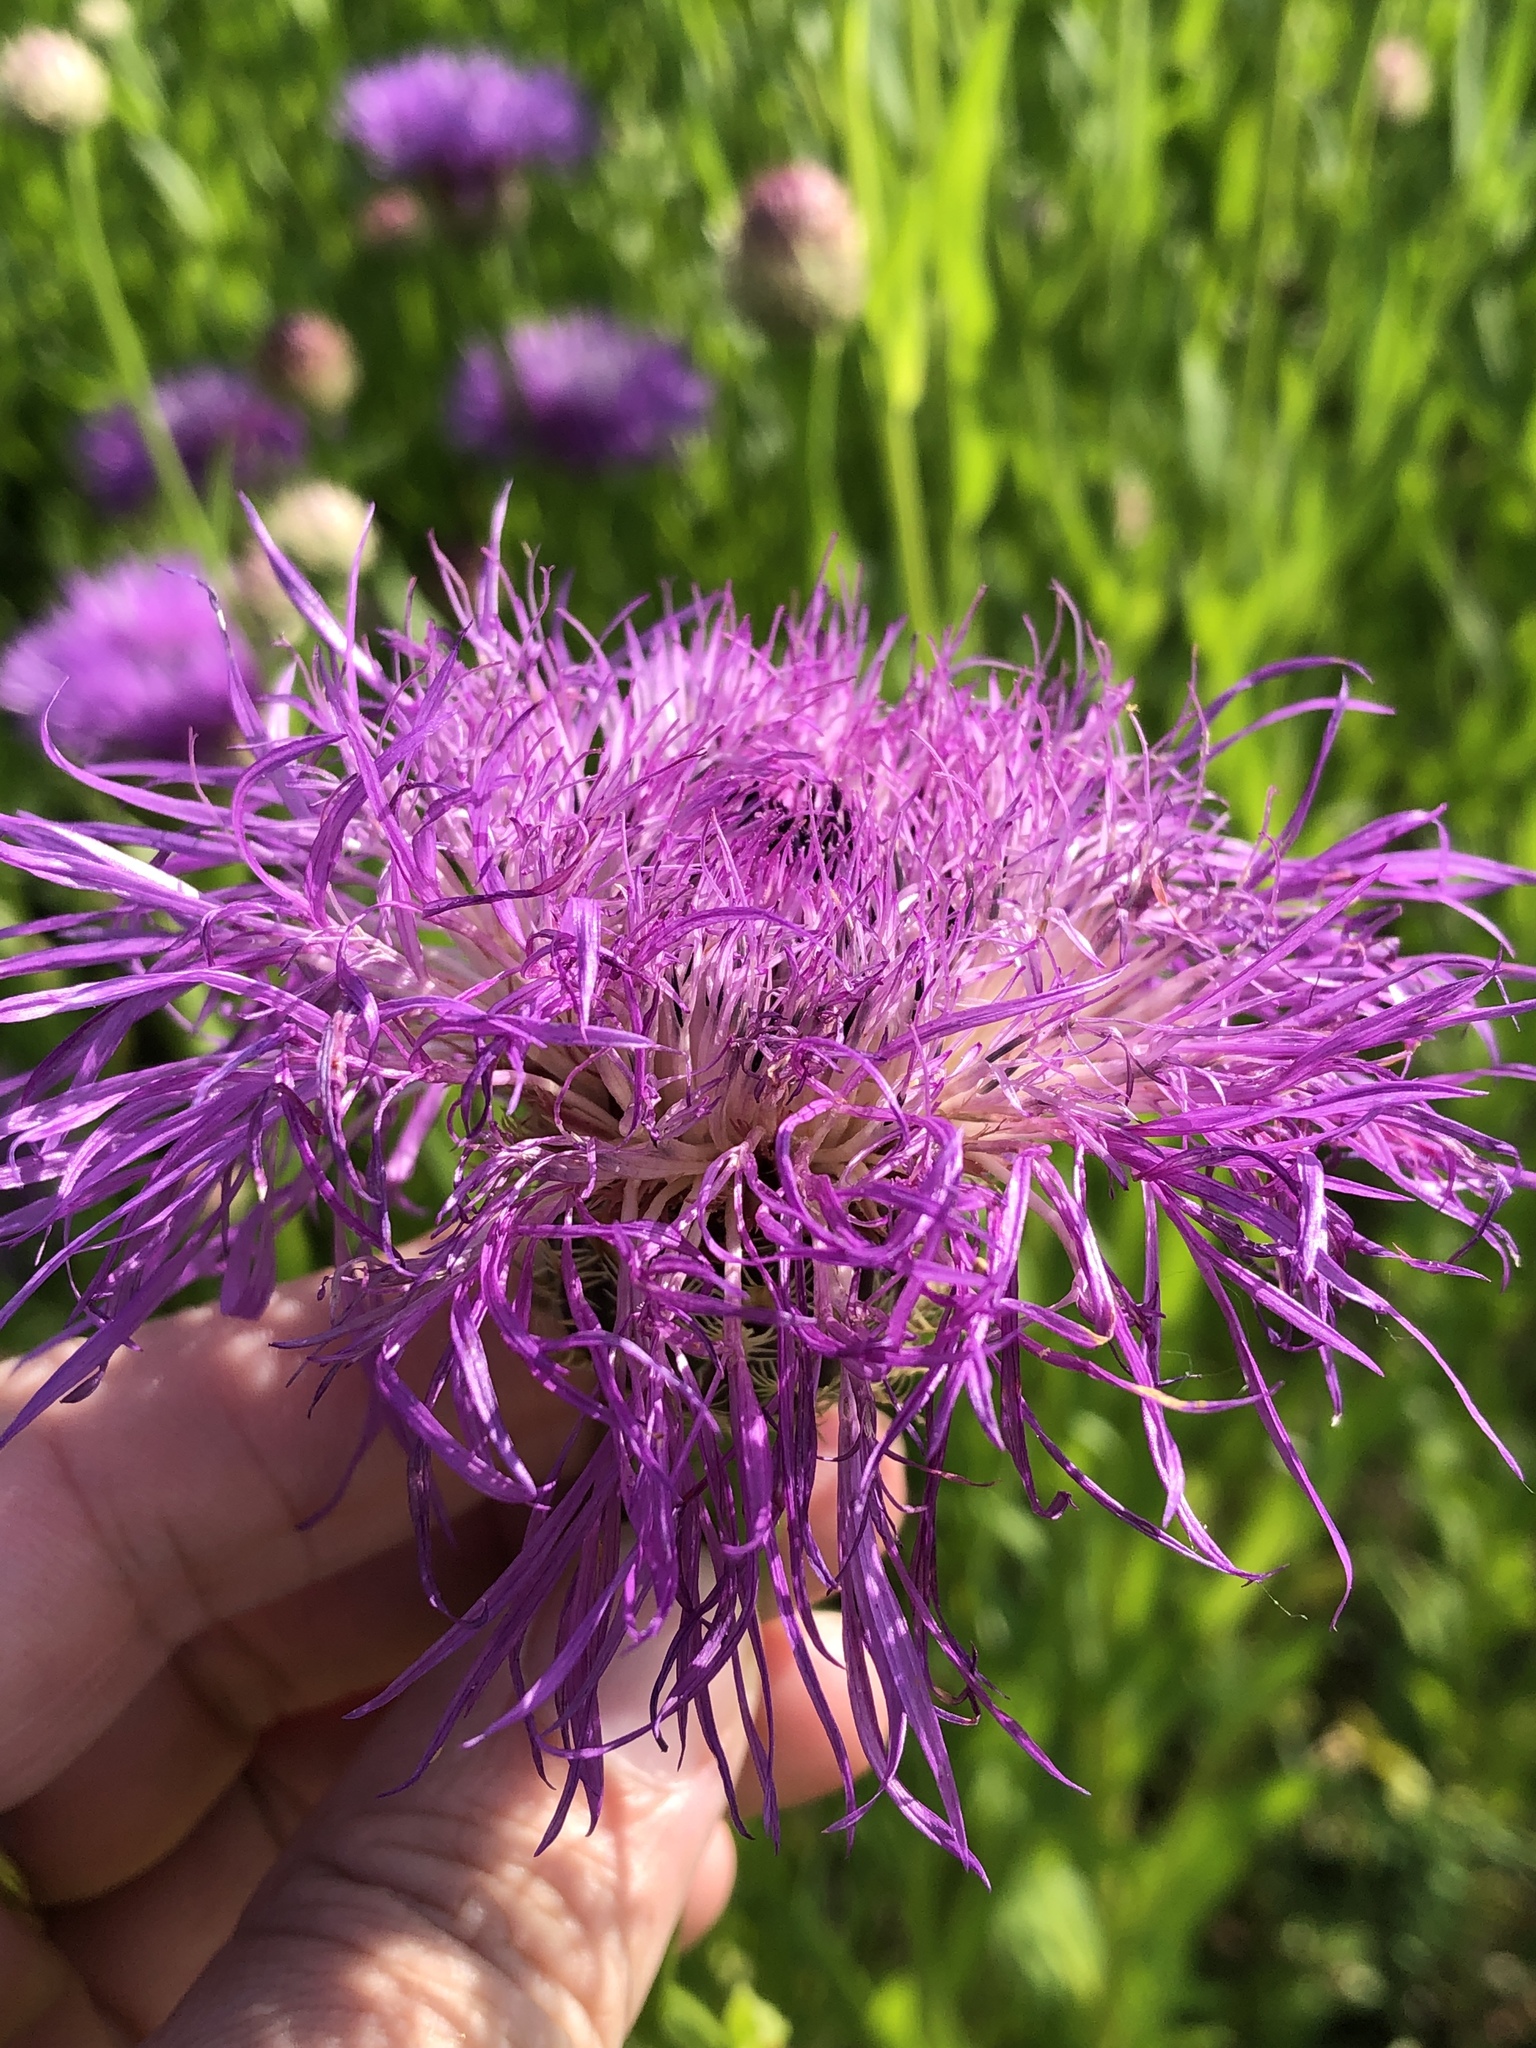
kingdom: Plantae
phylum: Tracheophyta
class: Magnoliopsida
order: Asterales
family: Asteraceae
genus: Plectocephalus
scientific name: Plectocephalus americanus
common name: American basket-flower
